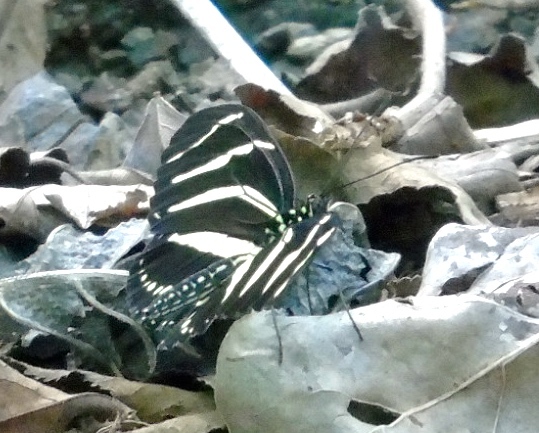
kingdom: Animalia
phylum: Arthropoda
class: Insecta
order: Lepidoptera
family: Nymphalidae
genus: Heliconius
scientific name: Heliconius charithonia
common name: Zebra long wing
